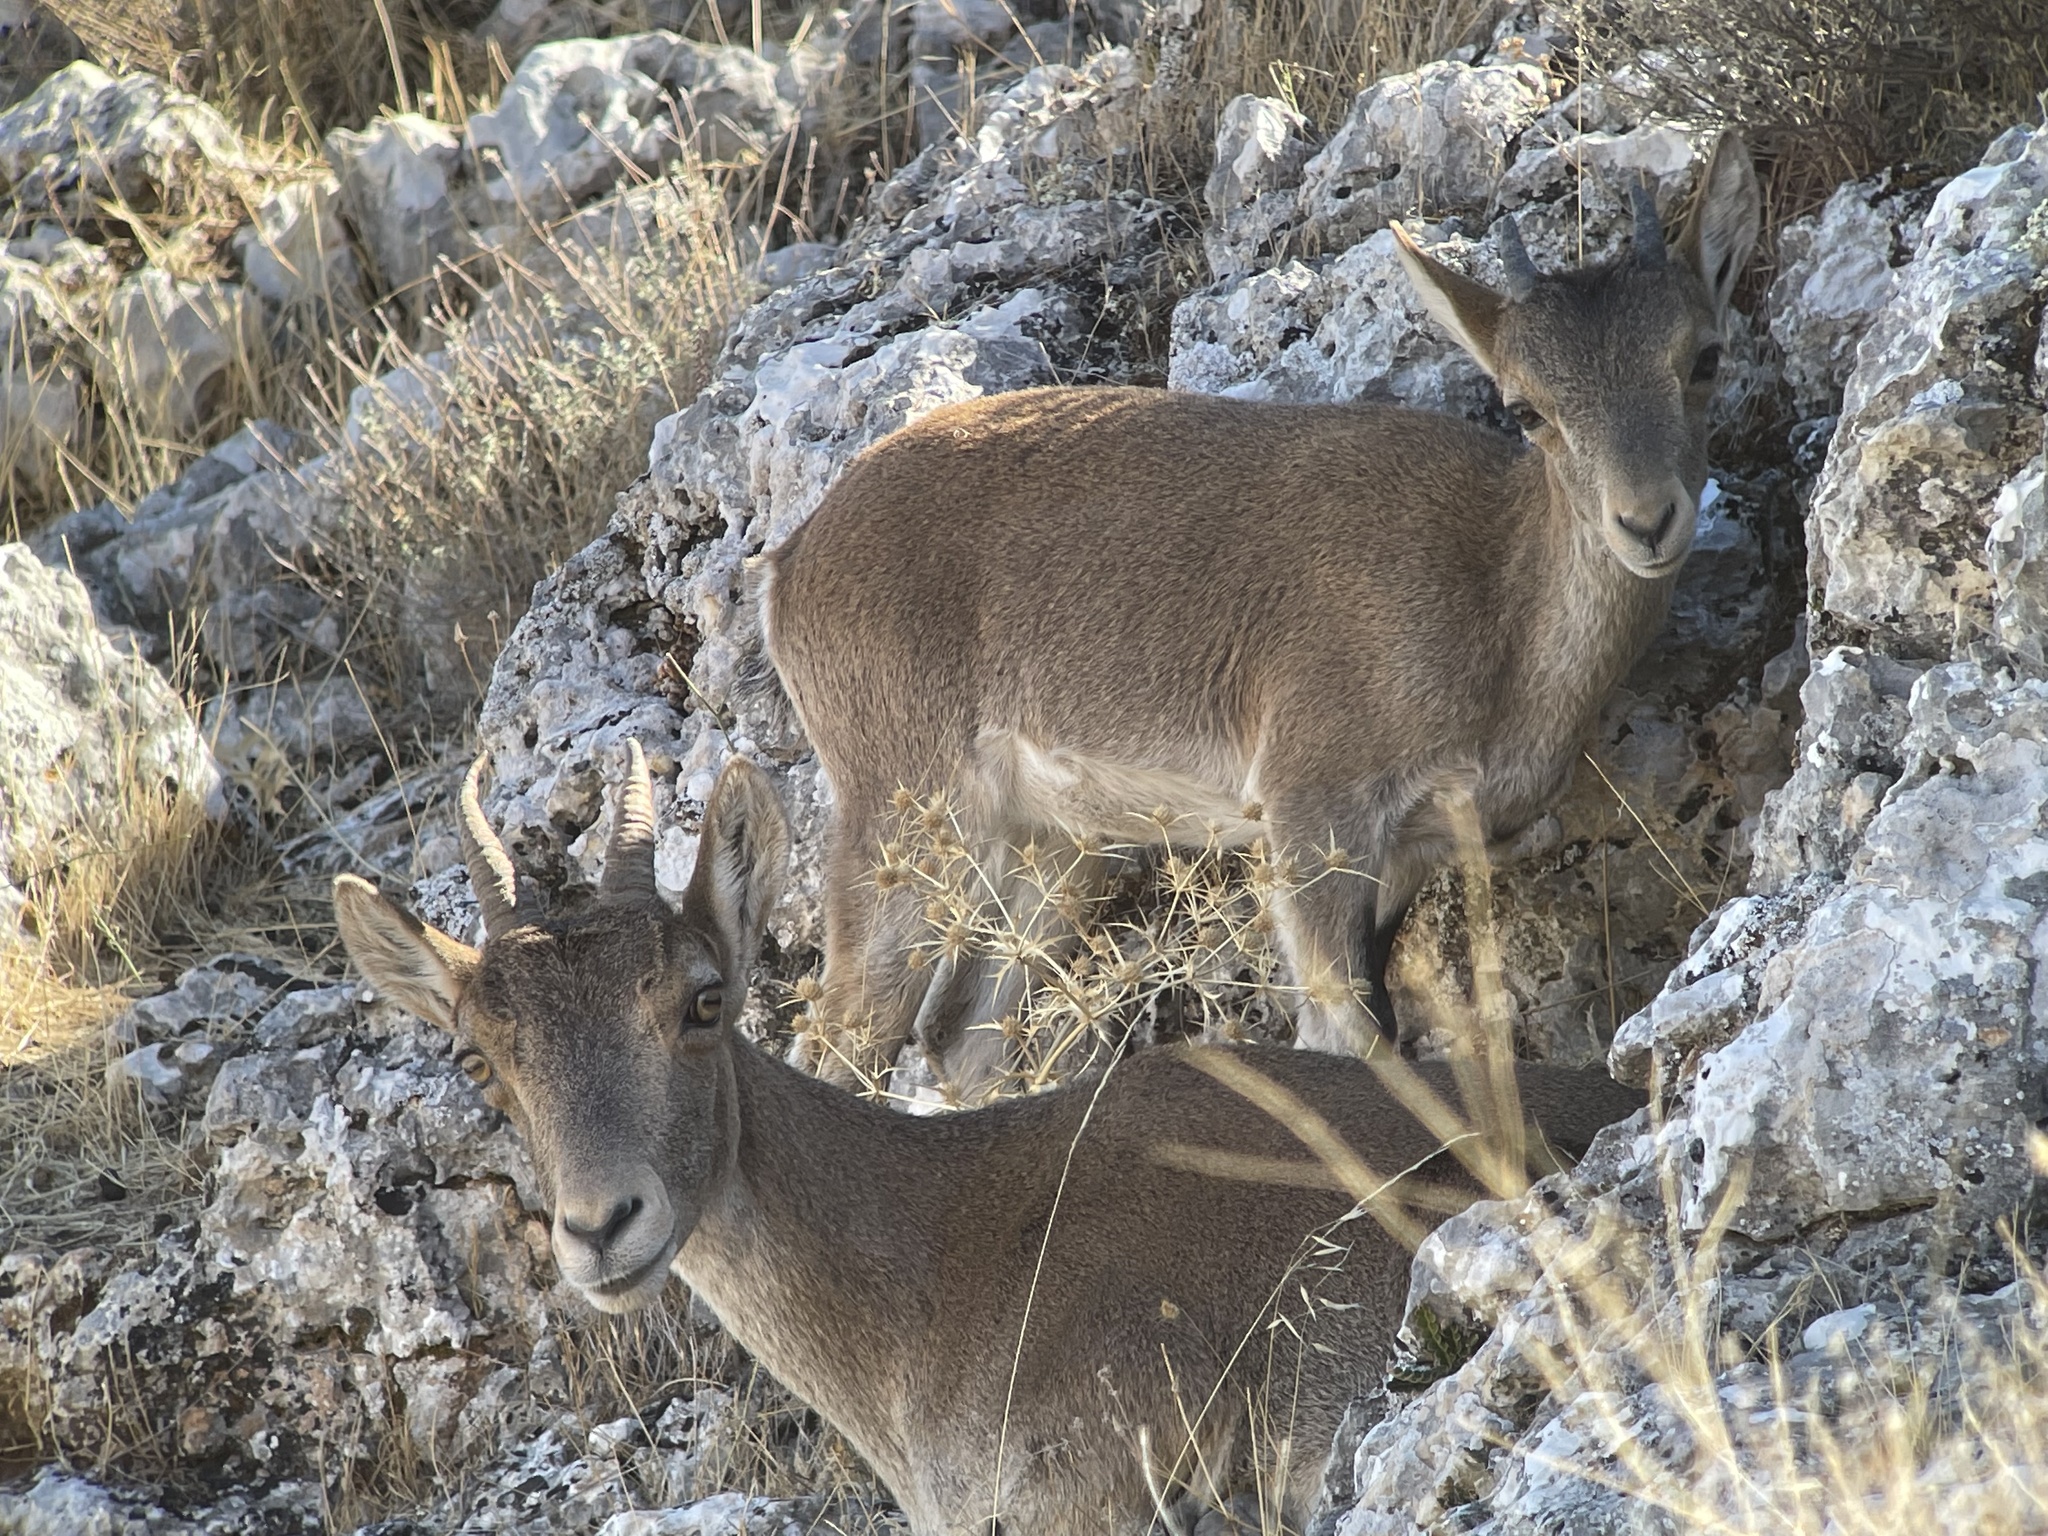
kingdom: Animalia
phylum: Chordata
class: Mammalia
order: Artiodactyla
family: Bovidae
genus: Capra
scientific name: Capra pyrenaica
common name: Spanish ibex
